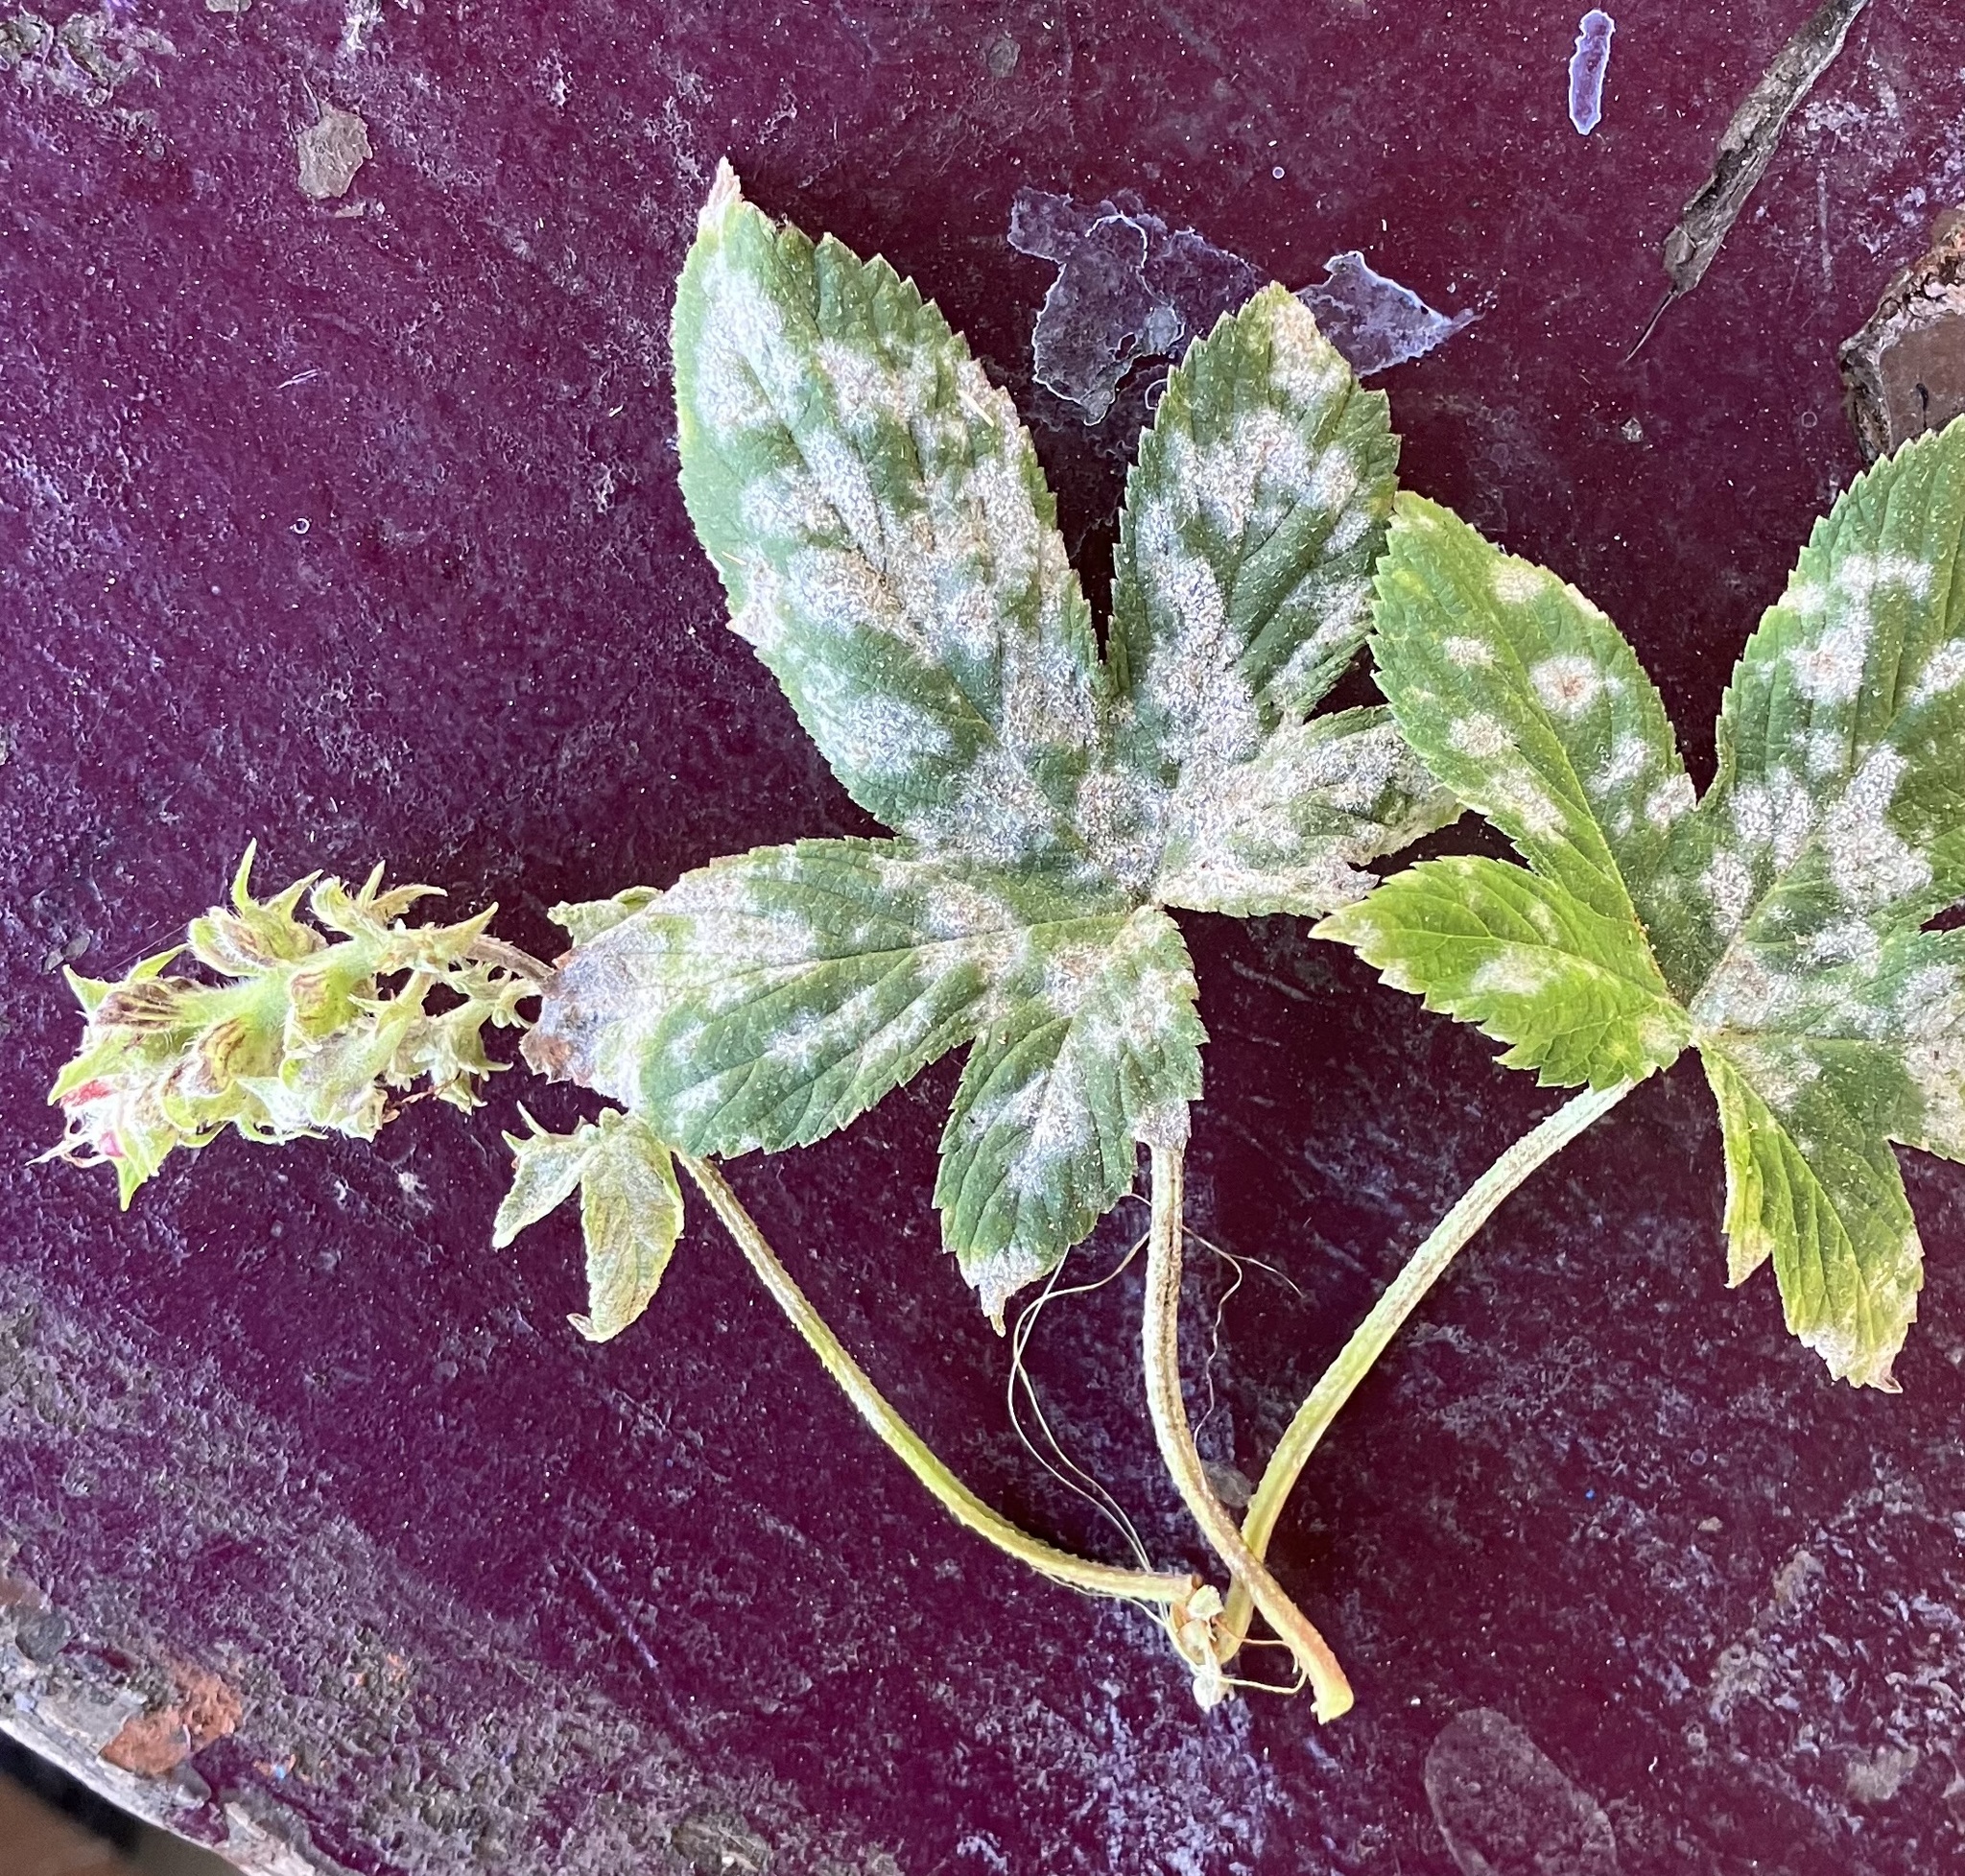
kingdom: Fungi
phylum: Ascomycota
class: Leotiomycetes
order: Helotiales
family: Erysiphaceae
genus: Podosphaera
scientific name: Podosphaera macularis
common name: Powdery mildew
